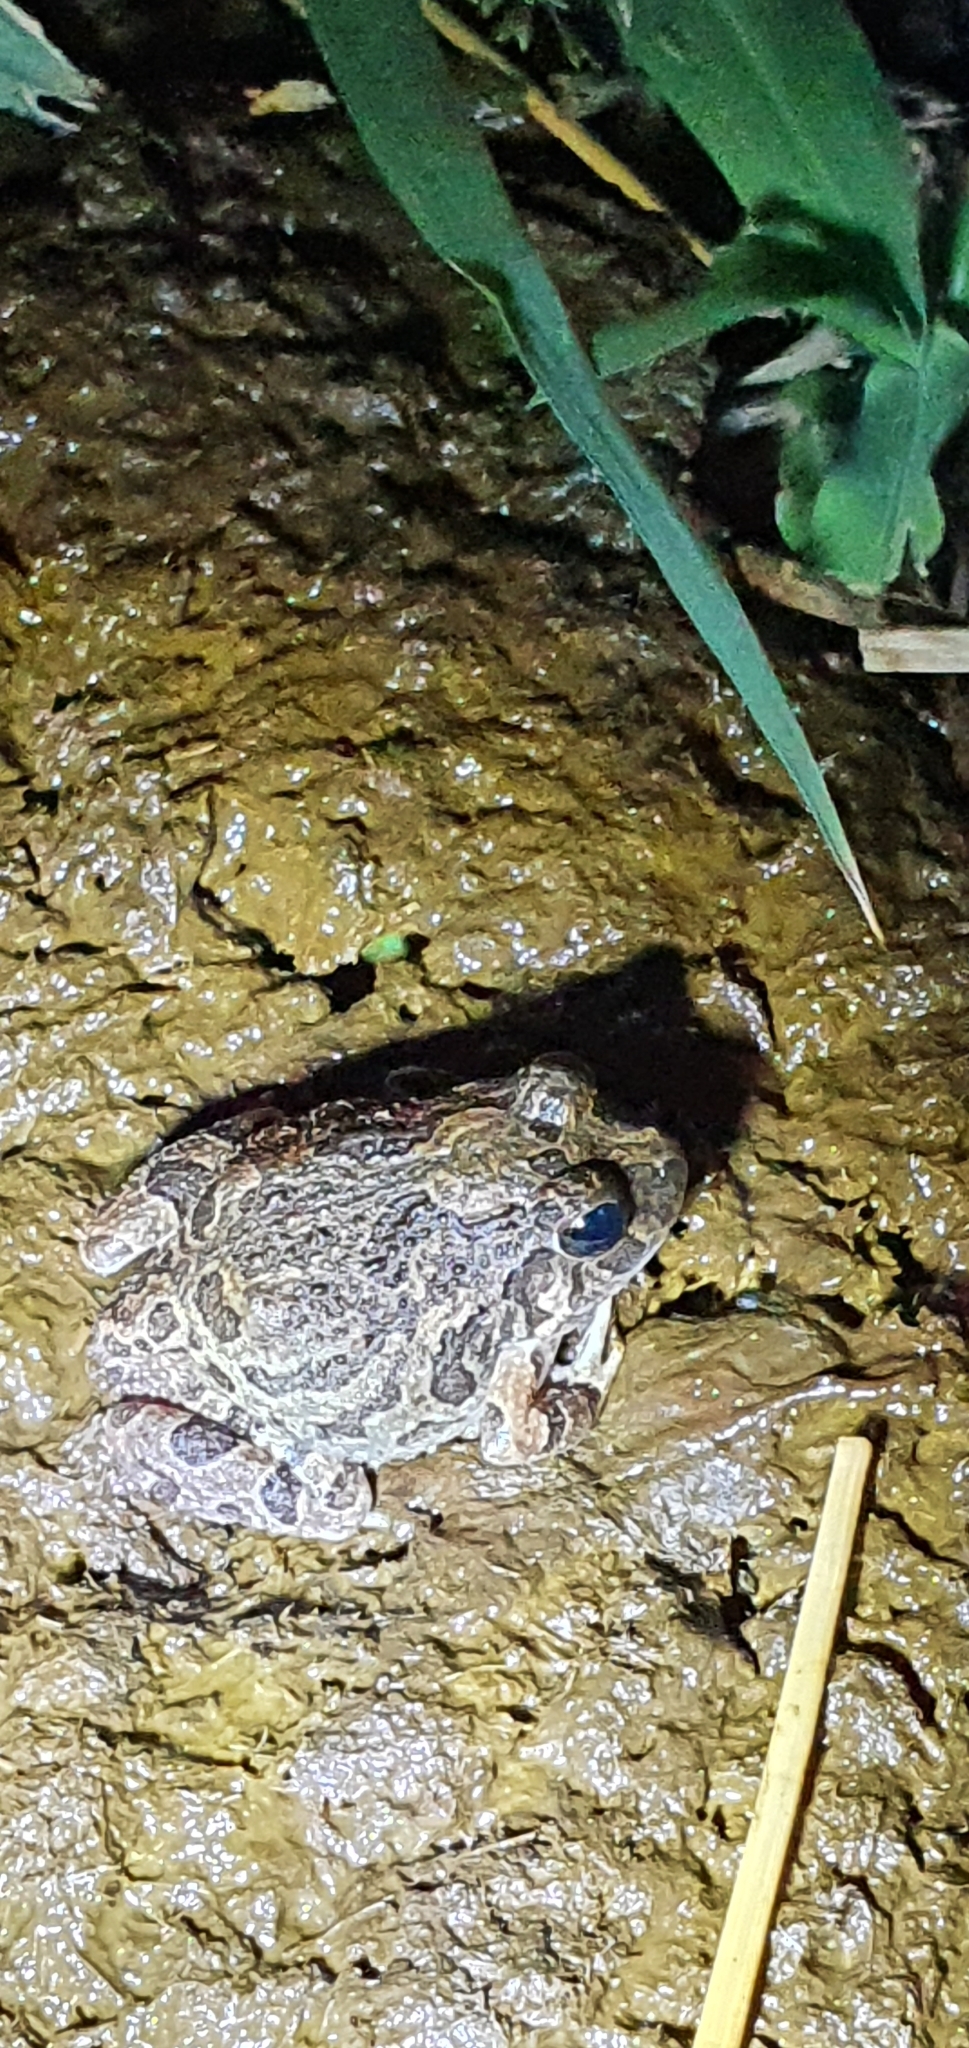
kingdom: Animalia
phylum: Chordata
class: Amphibia
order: Anura
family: Limnodynastidae
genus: Platyplectrum
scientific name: Platyplectrum ornatum
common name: Ornate burrowing frog
